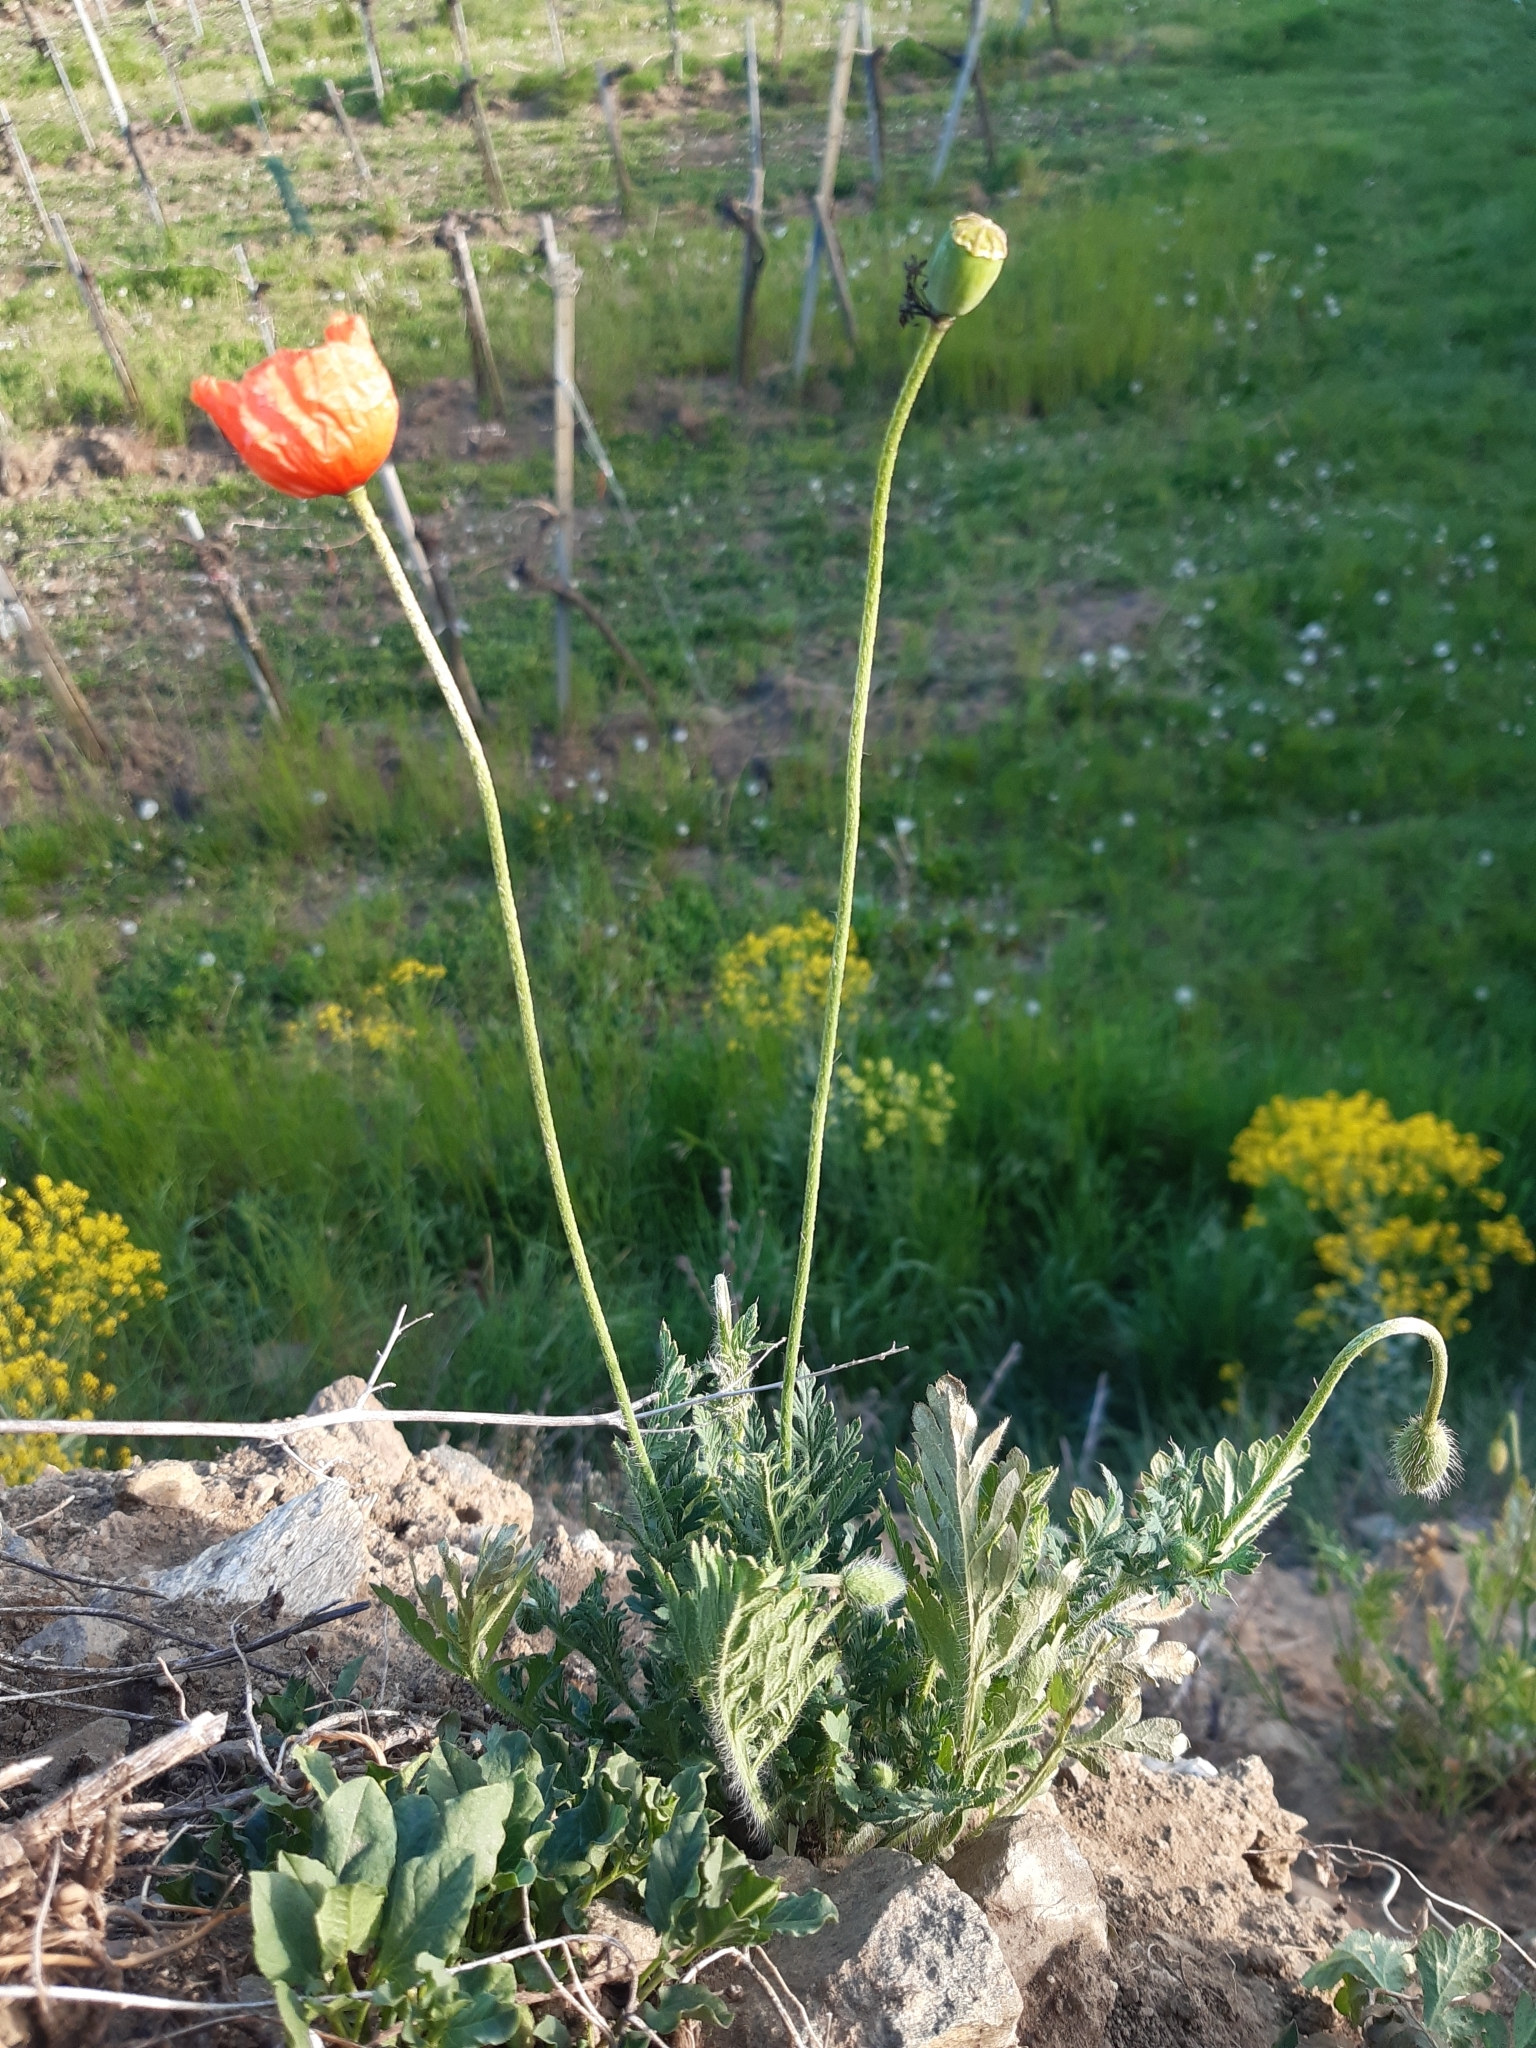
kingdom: Plantae
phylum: Tracheophyta
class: Magnoliopsida
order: Ranunculales
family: Papaveraceae
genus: Papaver
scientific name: Papaver dubium
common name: Long-headed poppy
